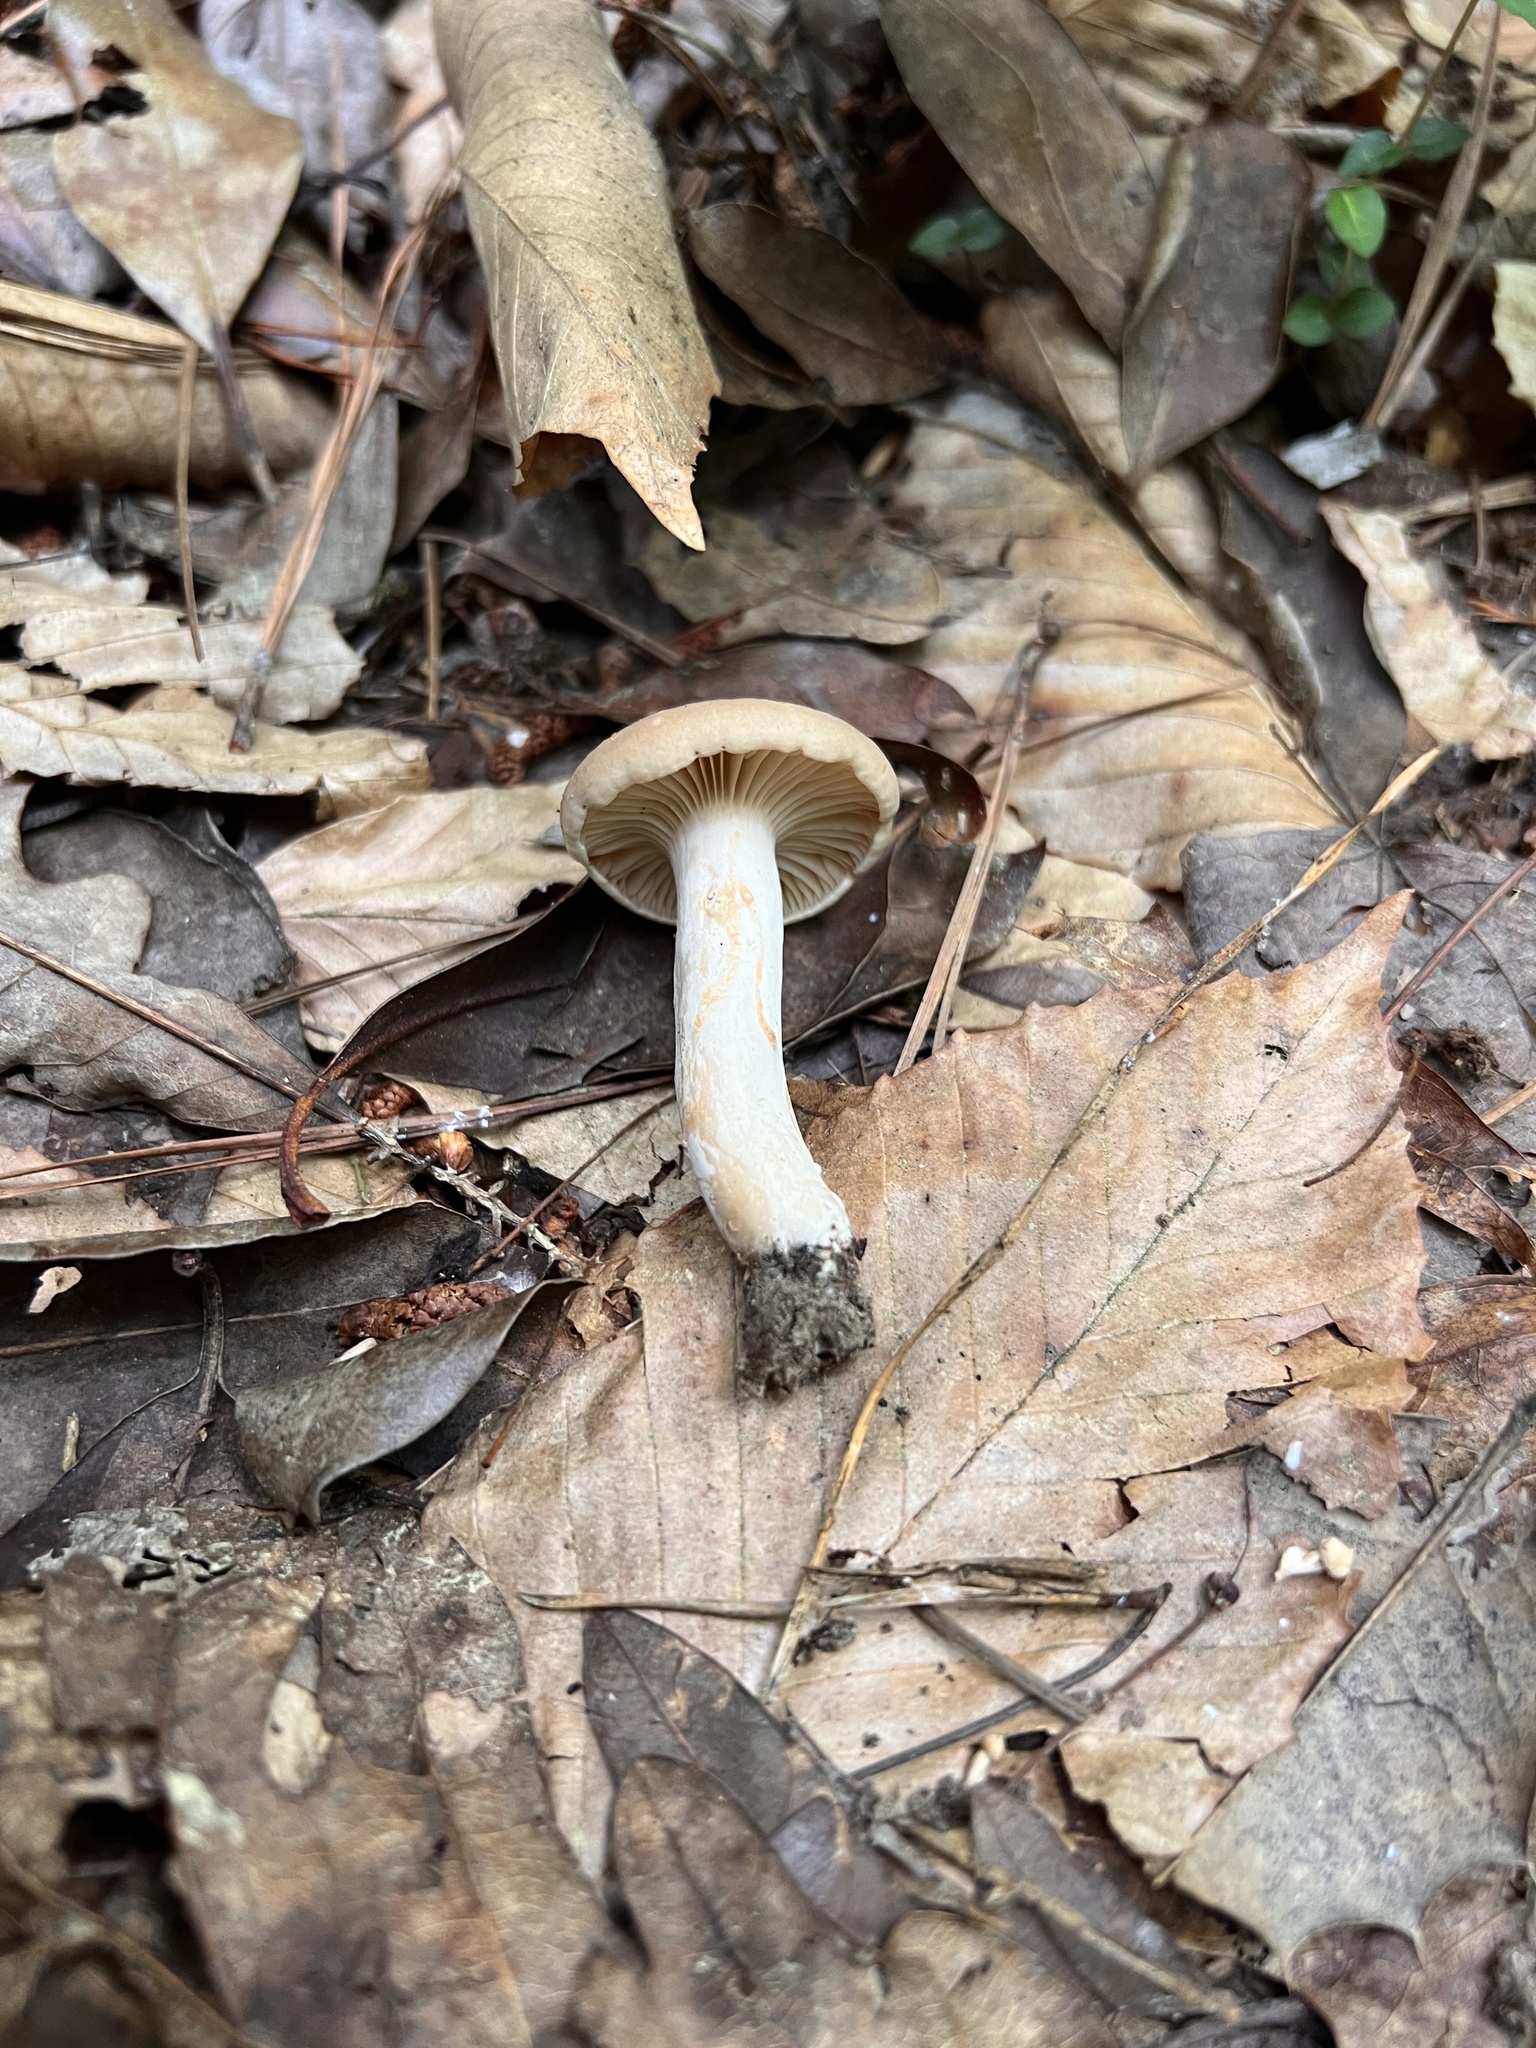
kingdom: Fungi
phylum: Basidiomycota
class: Agaricomycetes
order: Russulales
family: Russulaceae
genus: Lactarius
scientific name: Lactarius subplinthogalus
